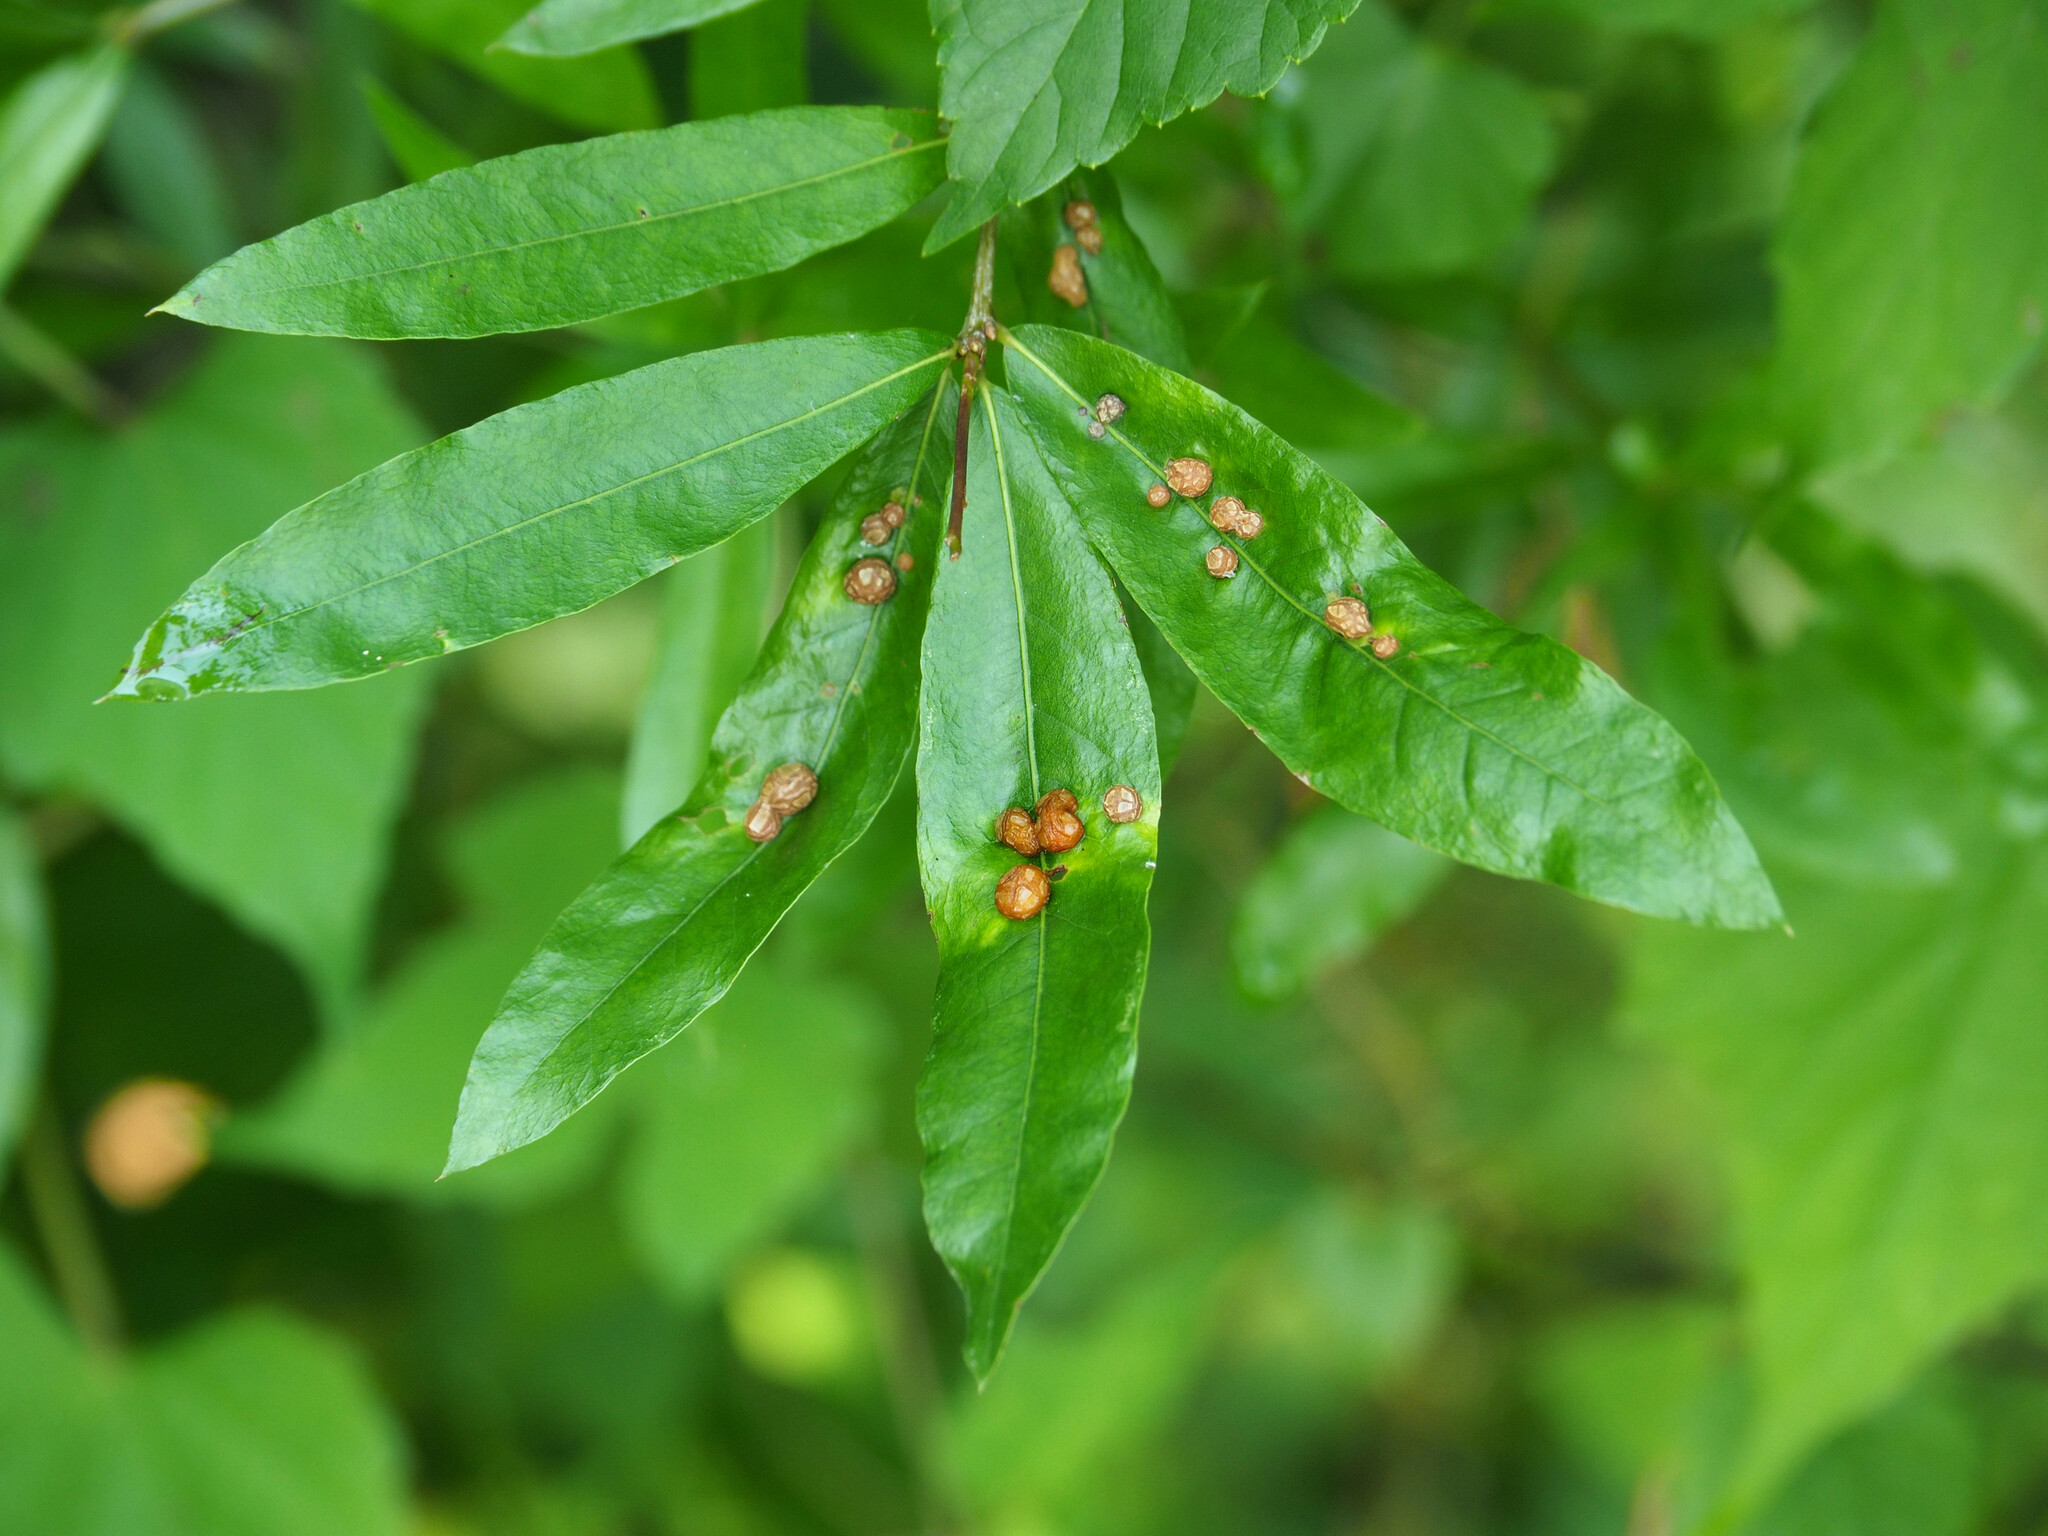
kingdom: Animalia
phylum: Arthropoda
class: Insecta
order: Diptera
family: Cecidomyiidae
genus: Polystepha
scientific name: Polystepha pilulae
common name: Oak leaf gall midge
